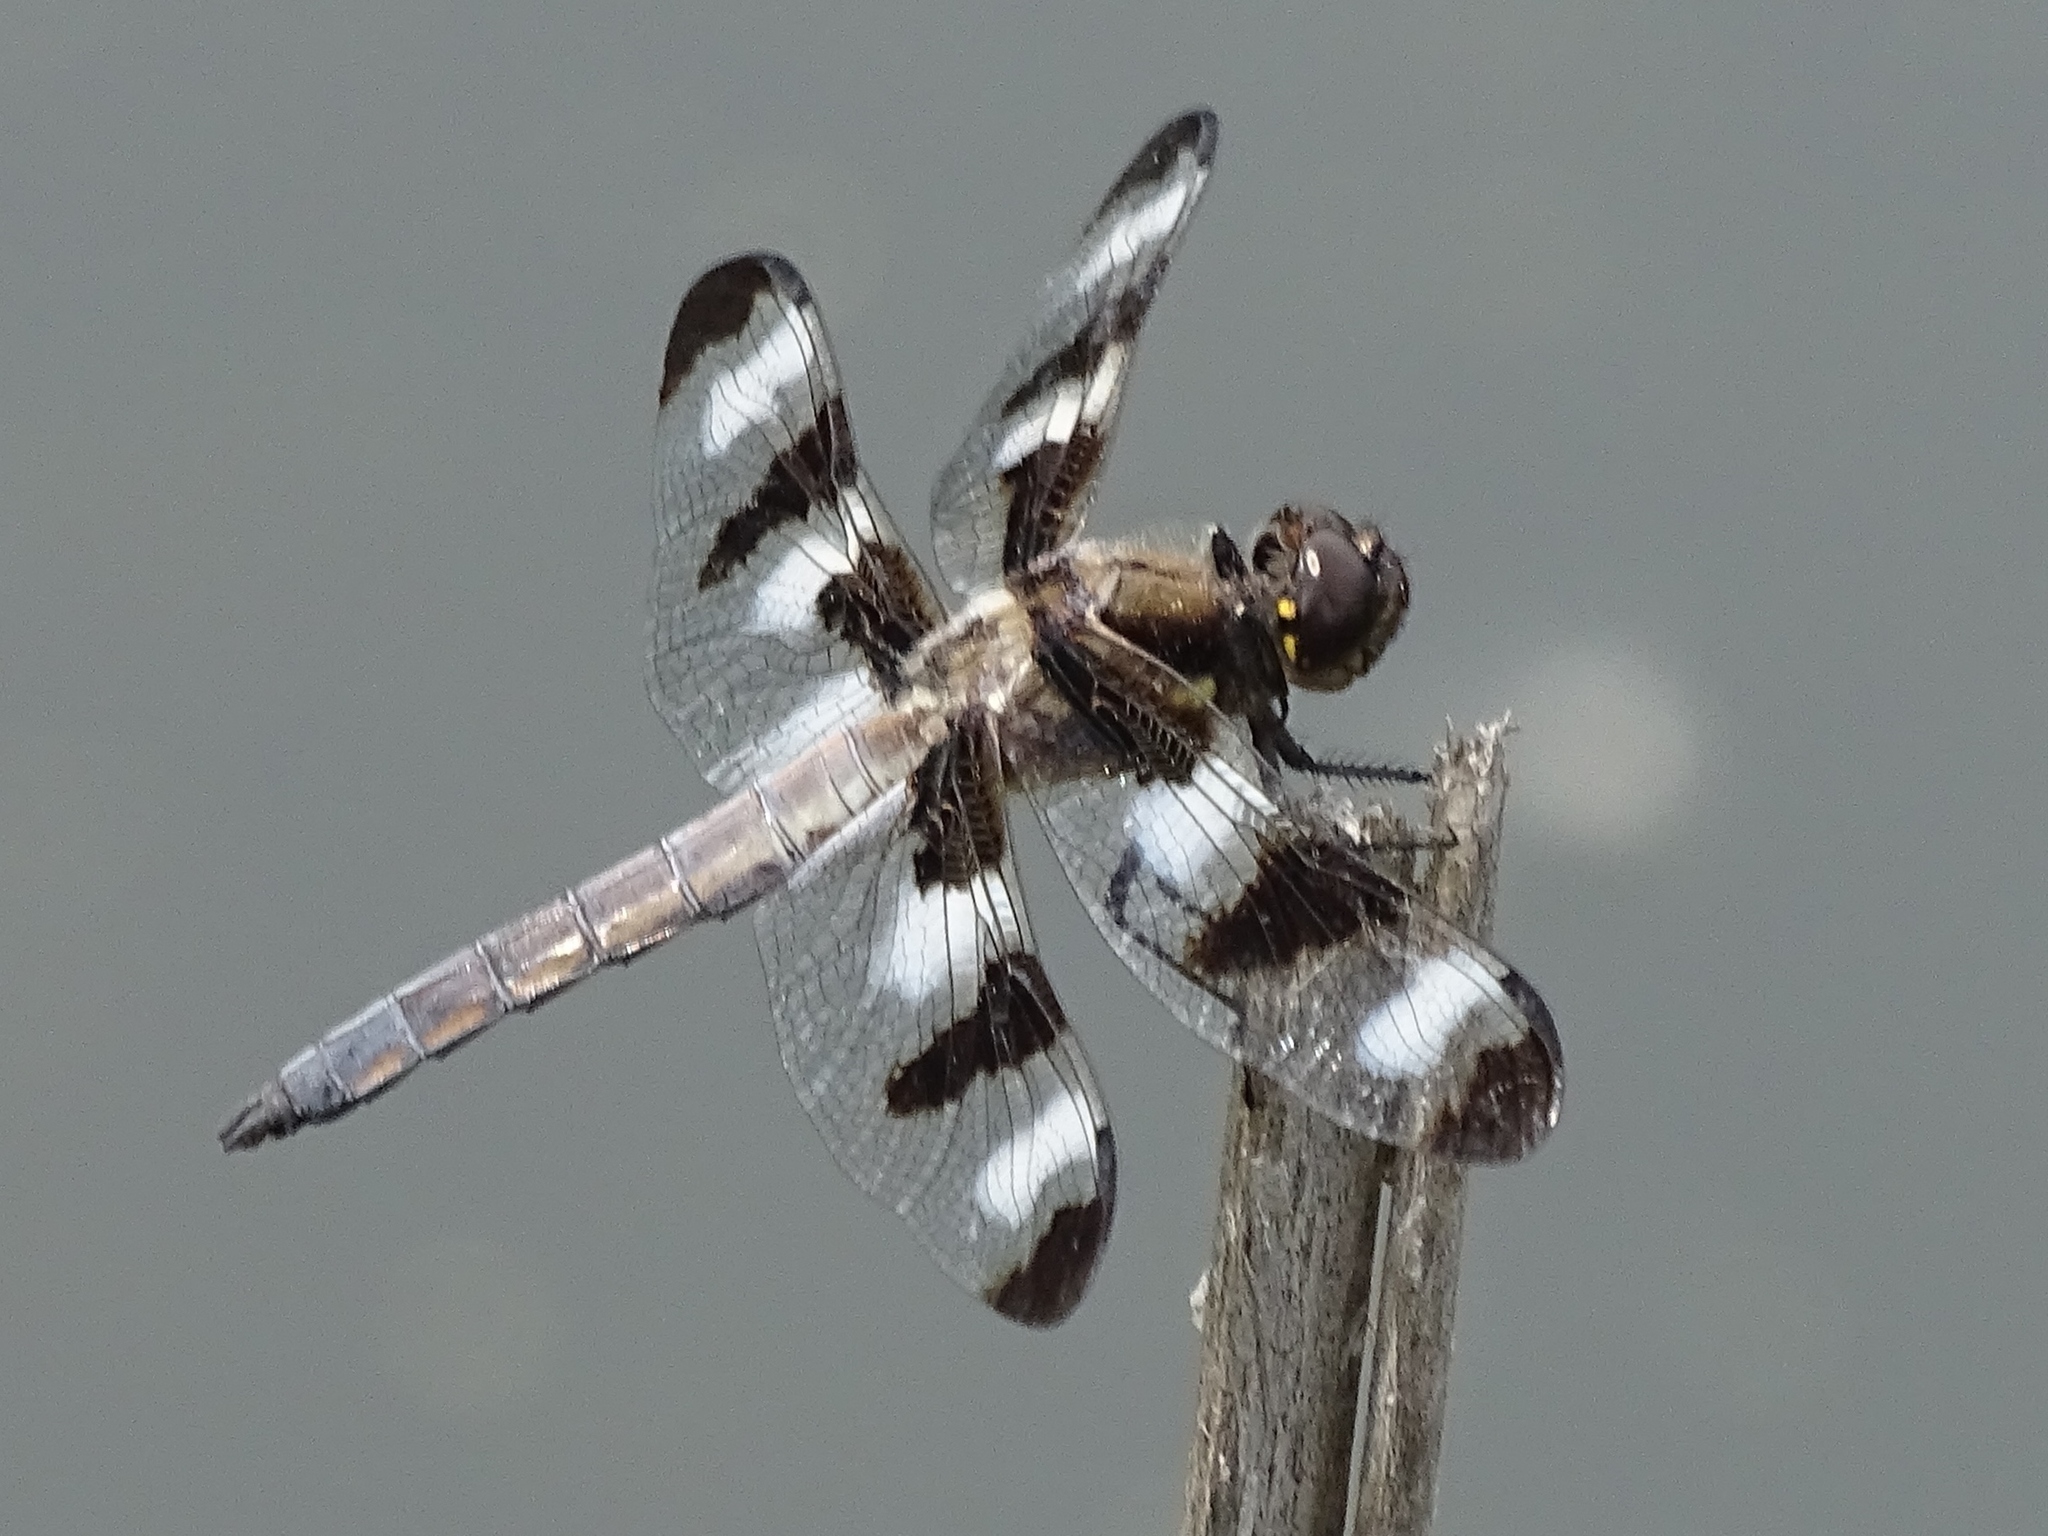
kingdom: Animalia
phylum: Arthropoda
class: Insecta
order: Odonata
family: Libellulidae
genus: Libellula
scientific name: Libellula pulchella
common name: Twelve-spotted skimmer
